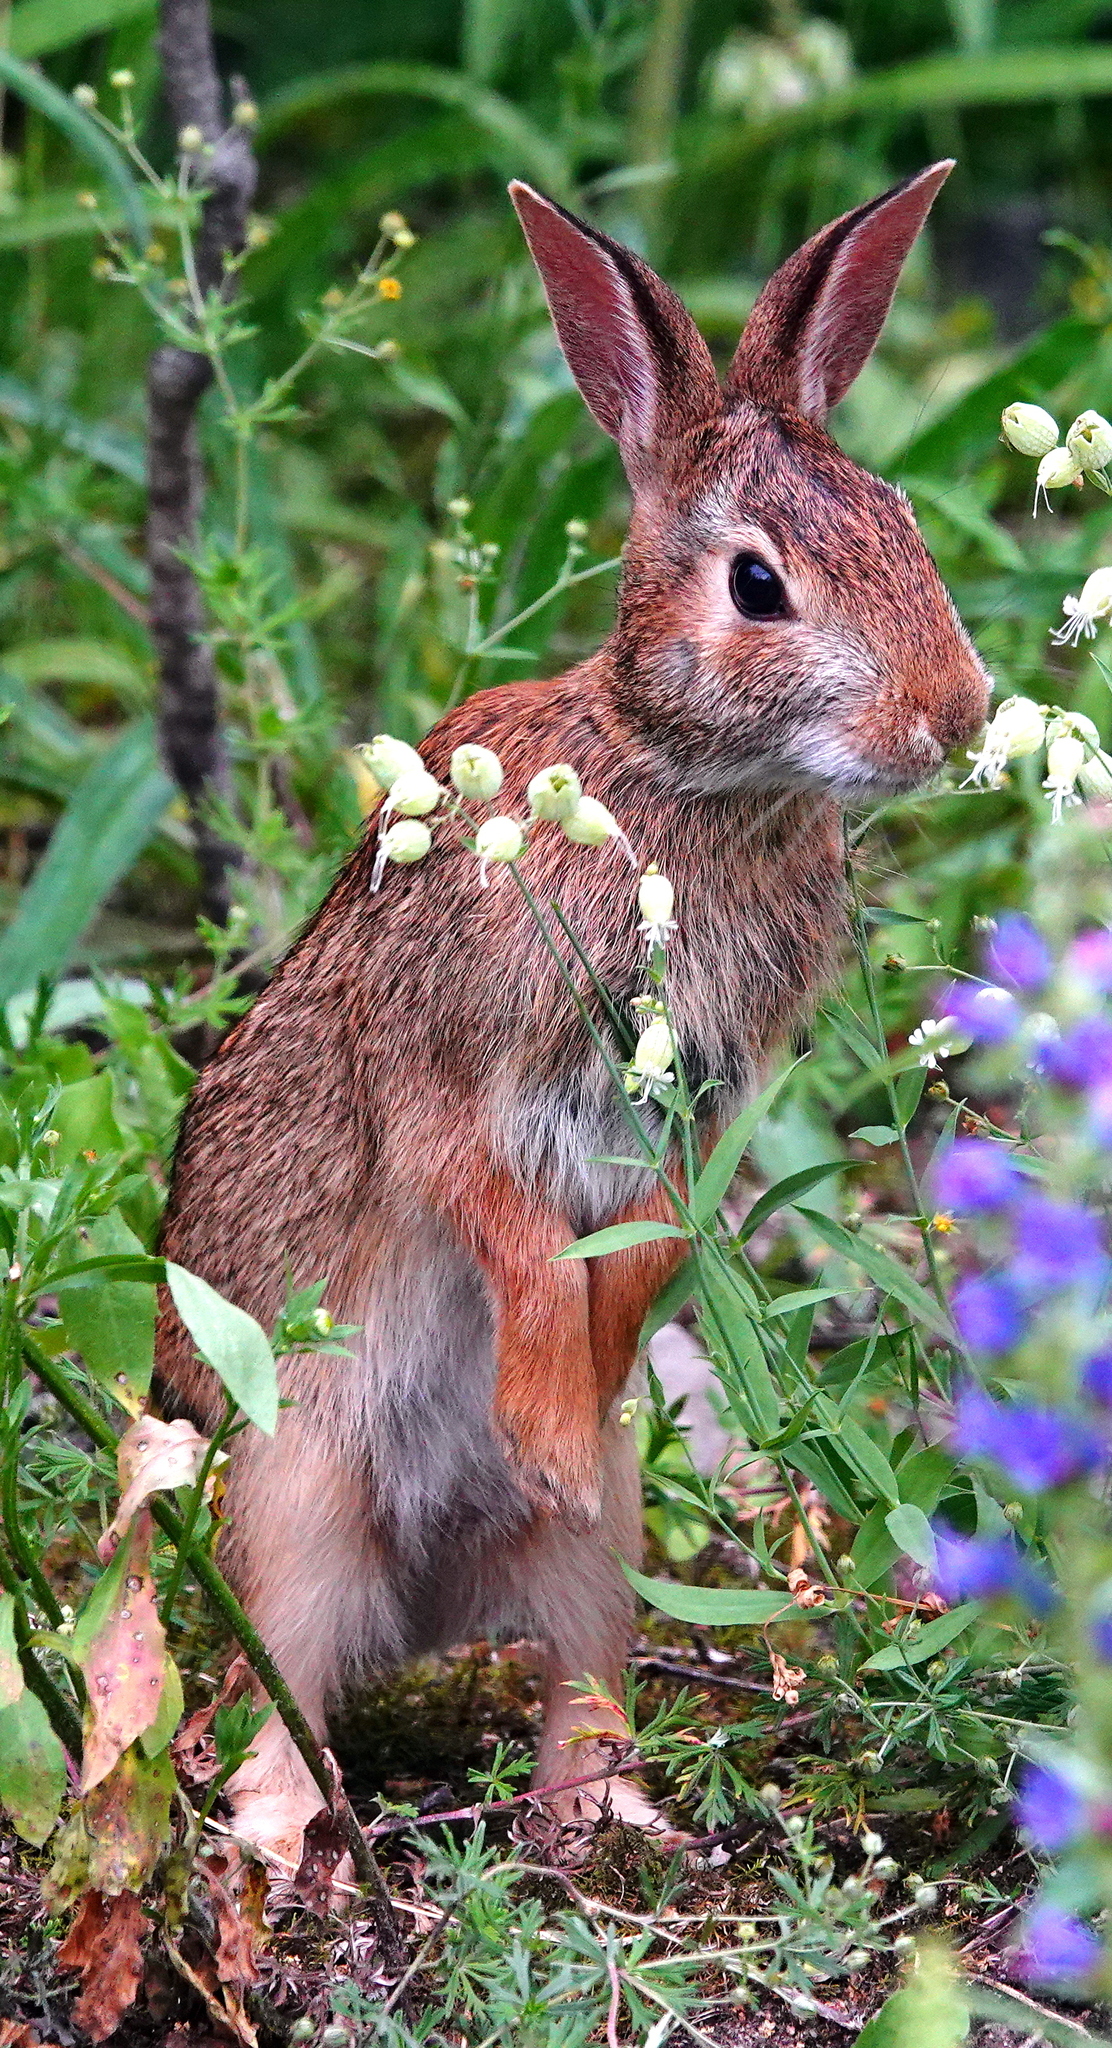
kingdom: Animalia
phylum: Chordata
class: Mammalia
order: Lagomorpha
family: Leporidae
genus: Sylvilagus
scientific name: Sylvilagus floridanus
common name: Eastern cottontail
